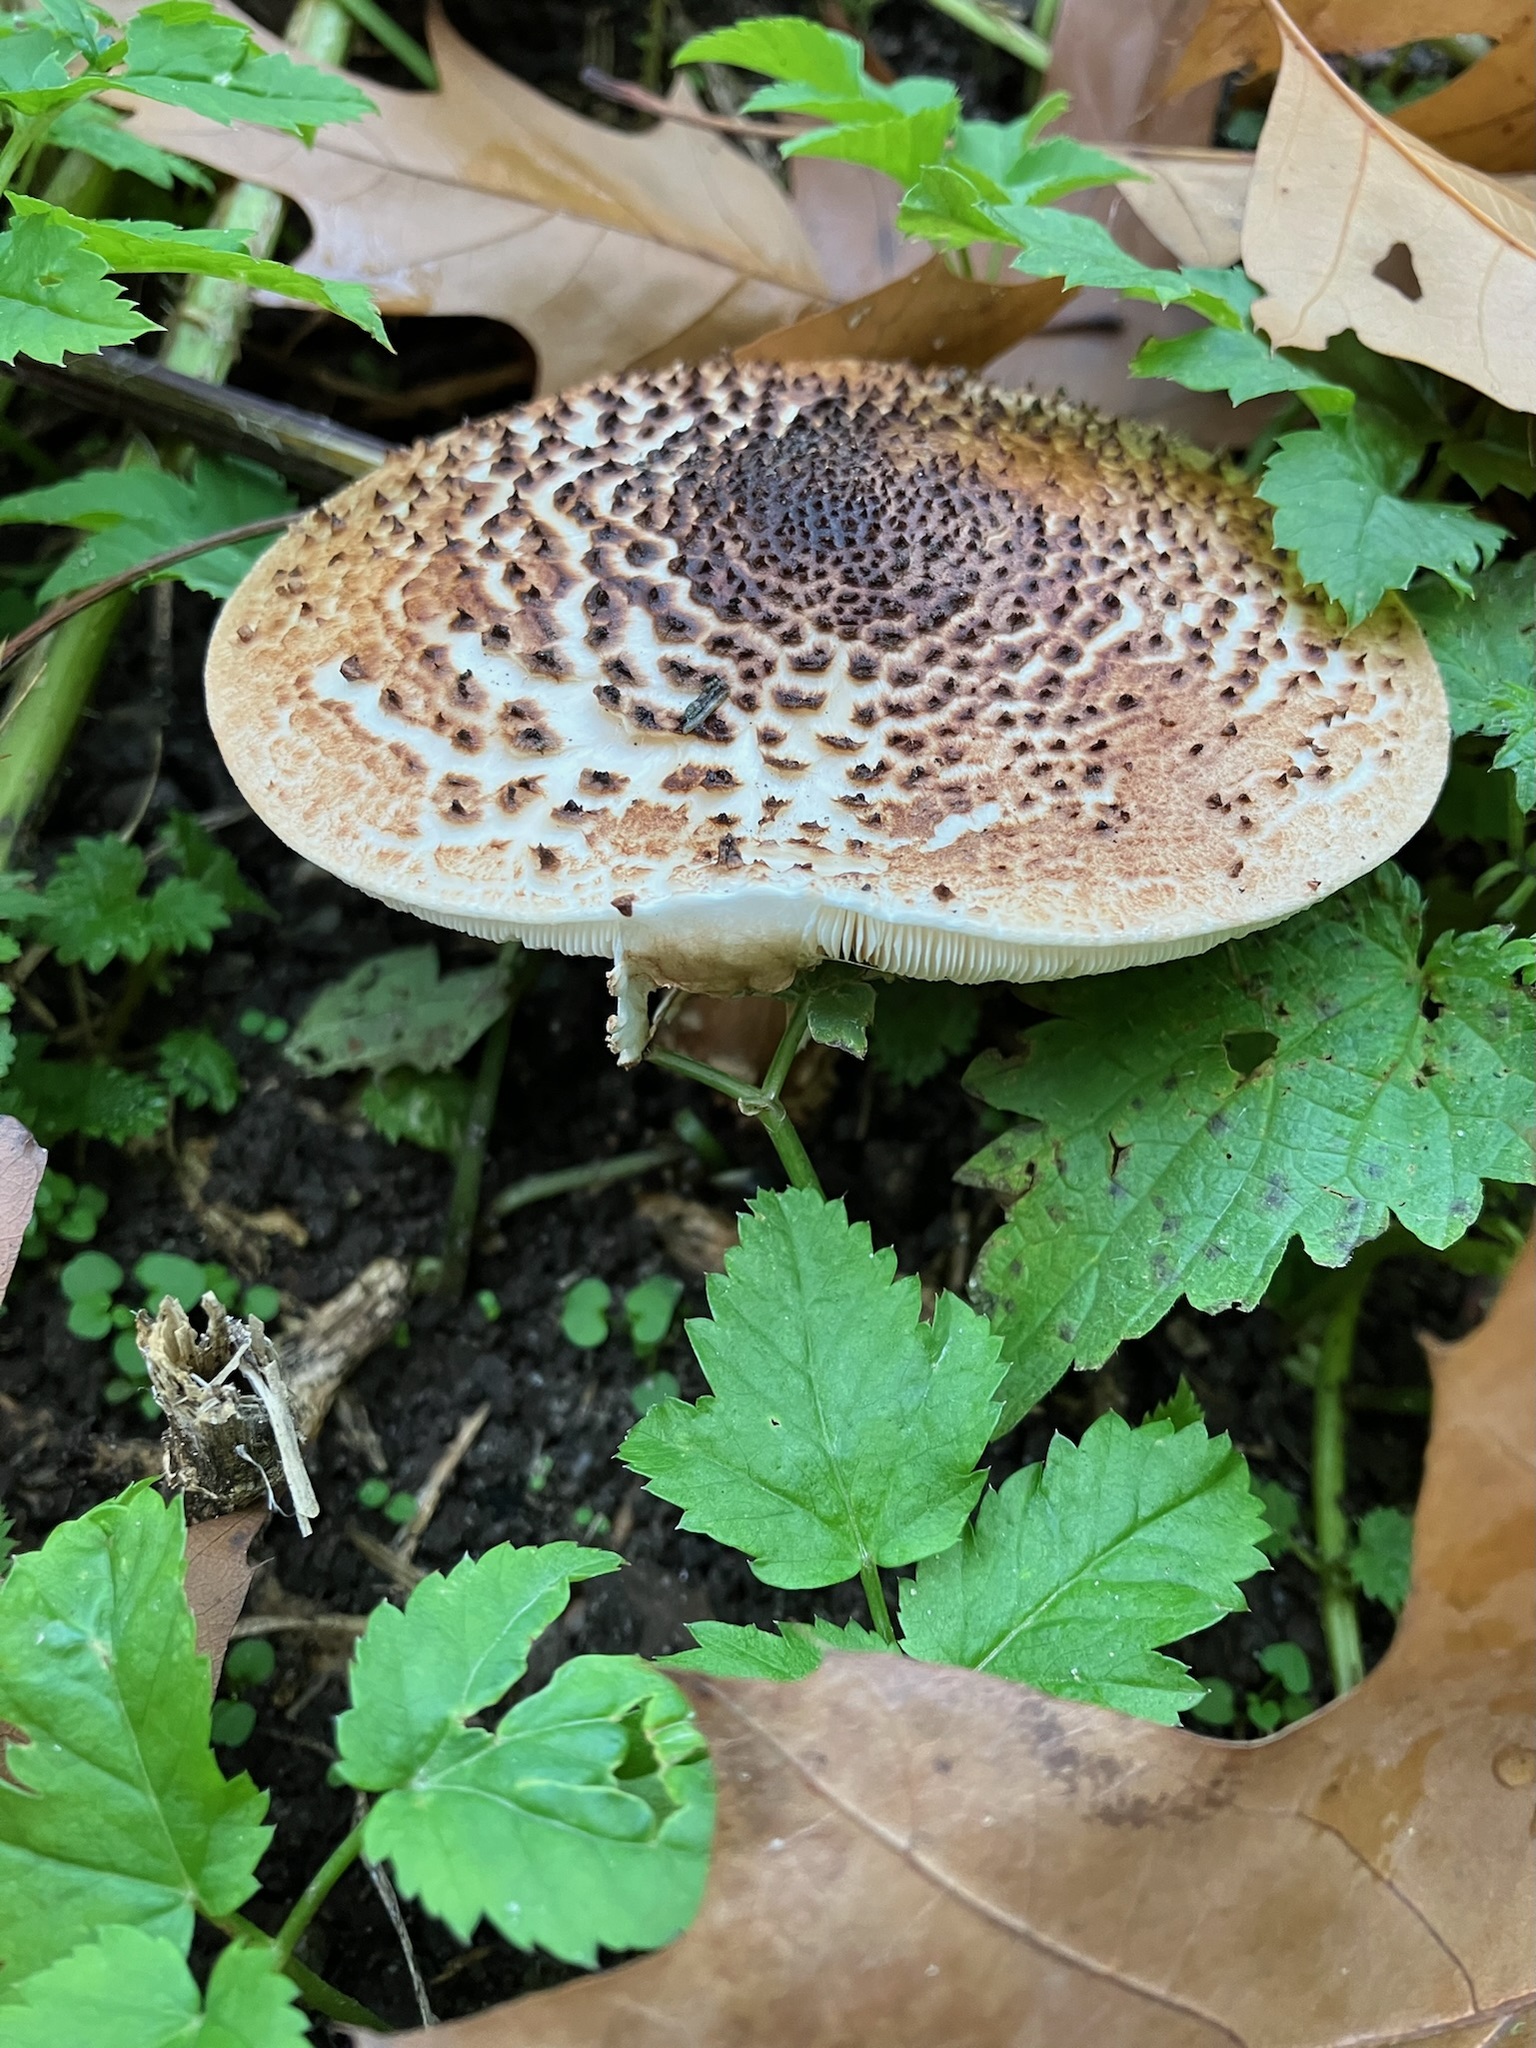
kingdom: Fungi
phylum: Basidiomycota
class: Agaricomycetes
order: Agaricales
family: Agaricaceae
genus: Echinoderma
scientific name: Echinoderma asperum
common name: Freckled dapperling
